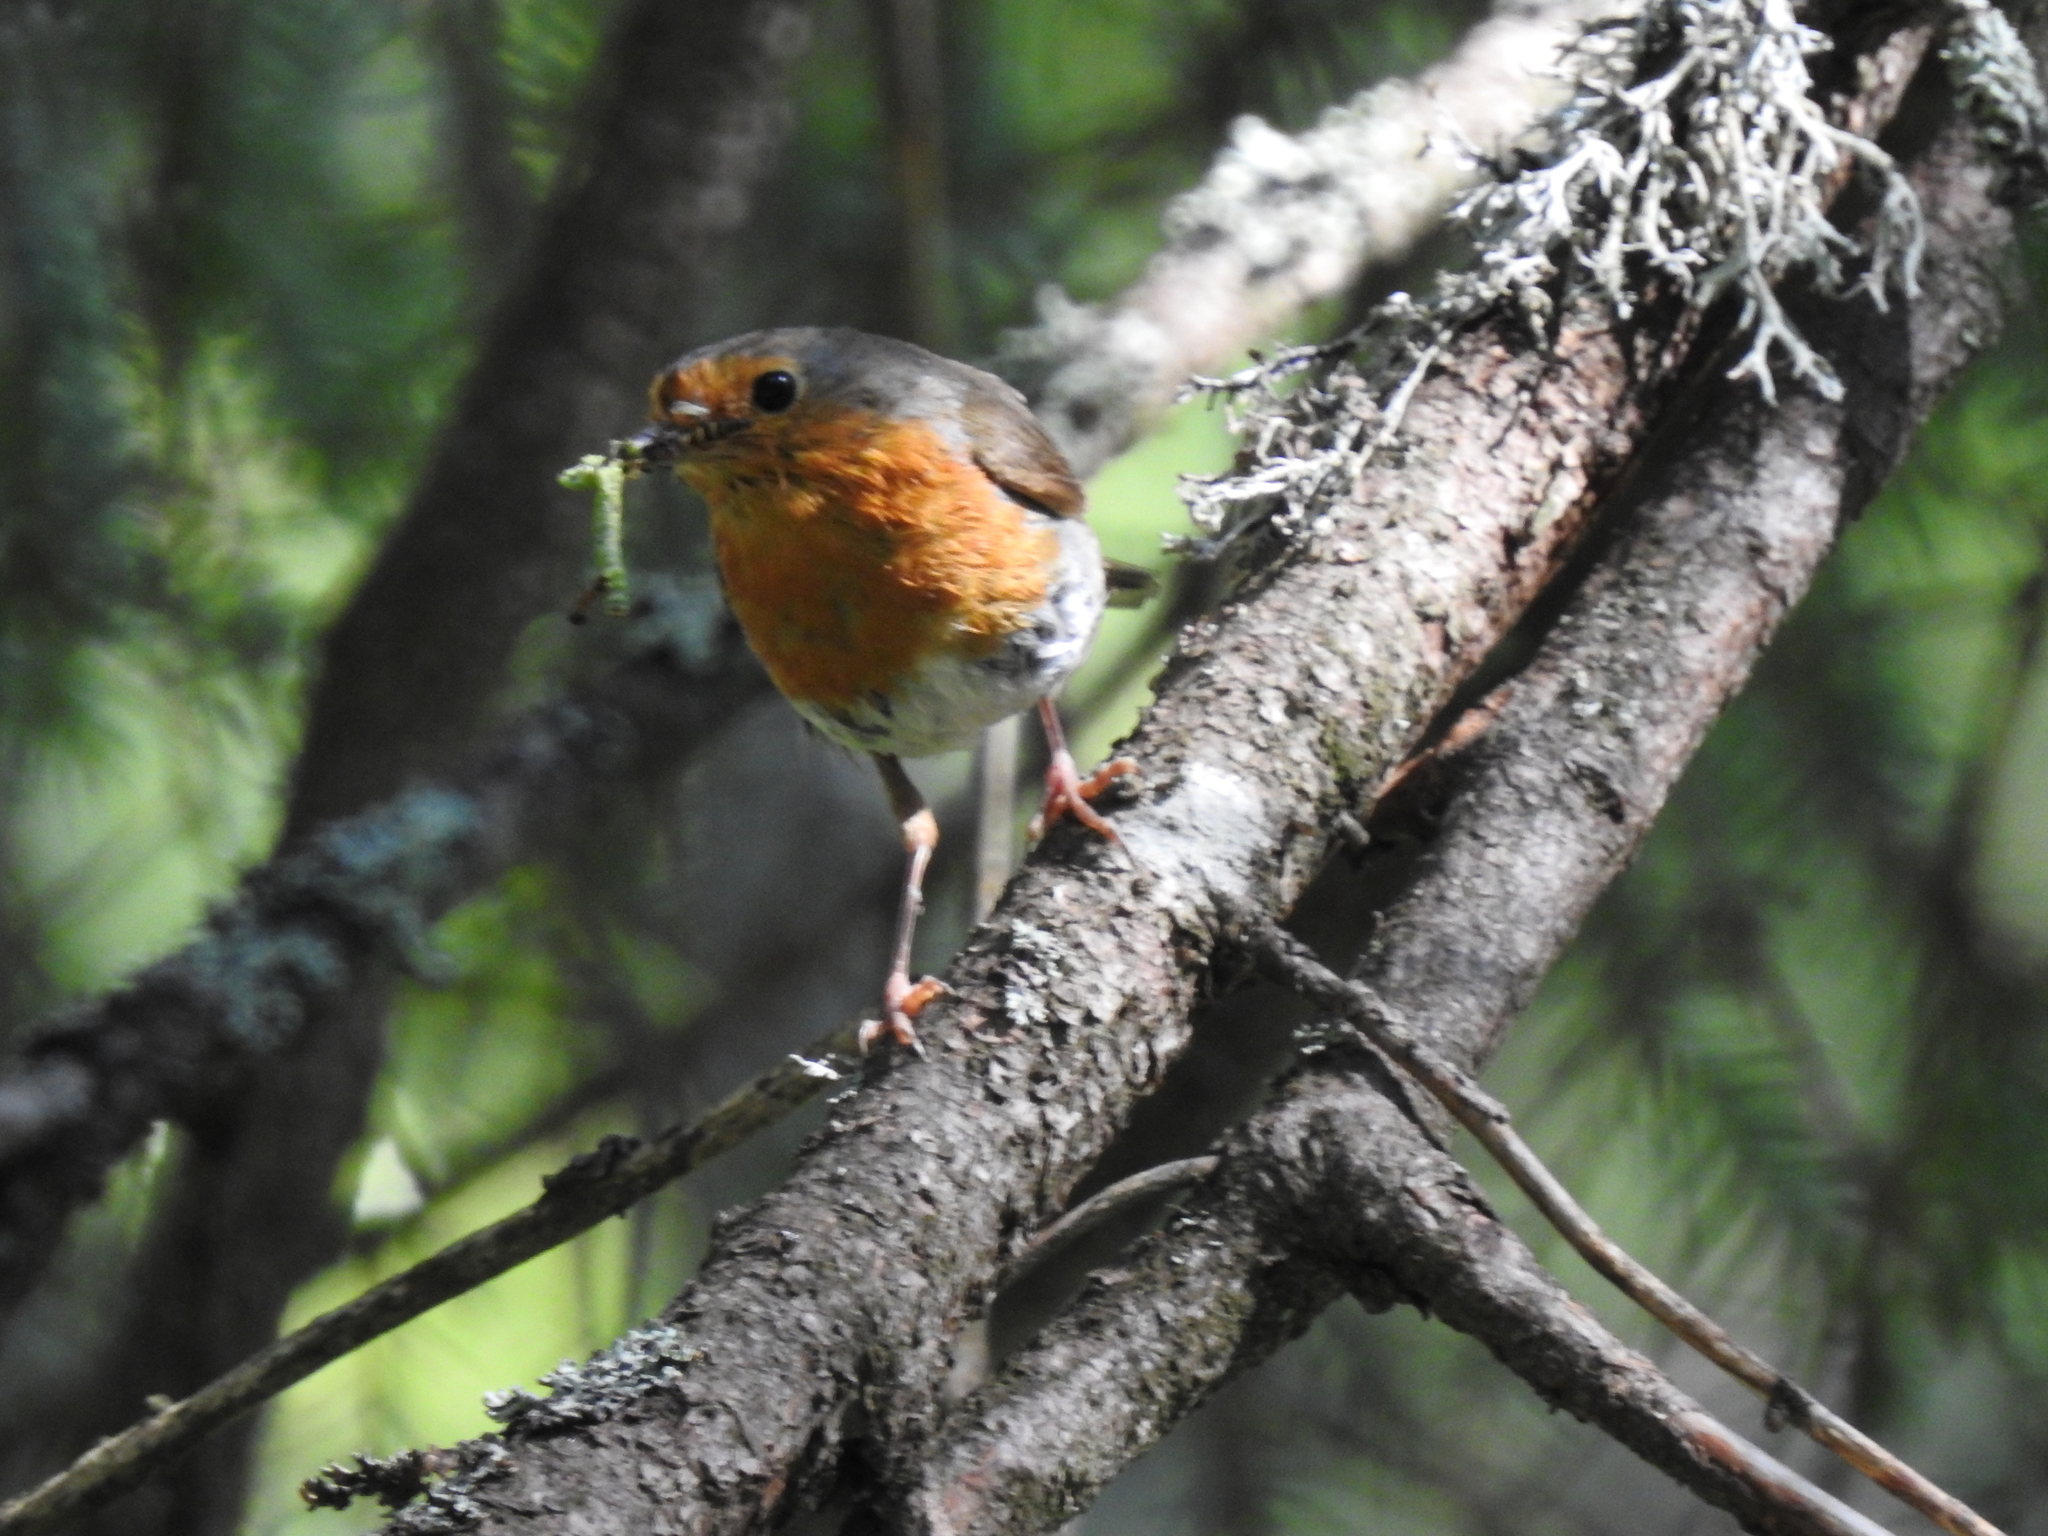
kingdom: Animalia
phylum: Chordata
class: Aves
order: Passeriformes
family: Muscicapidae
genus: Erithacus
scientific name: Erithacus rubecula
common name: European robin
